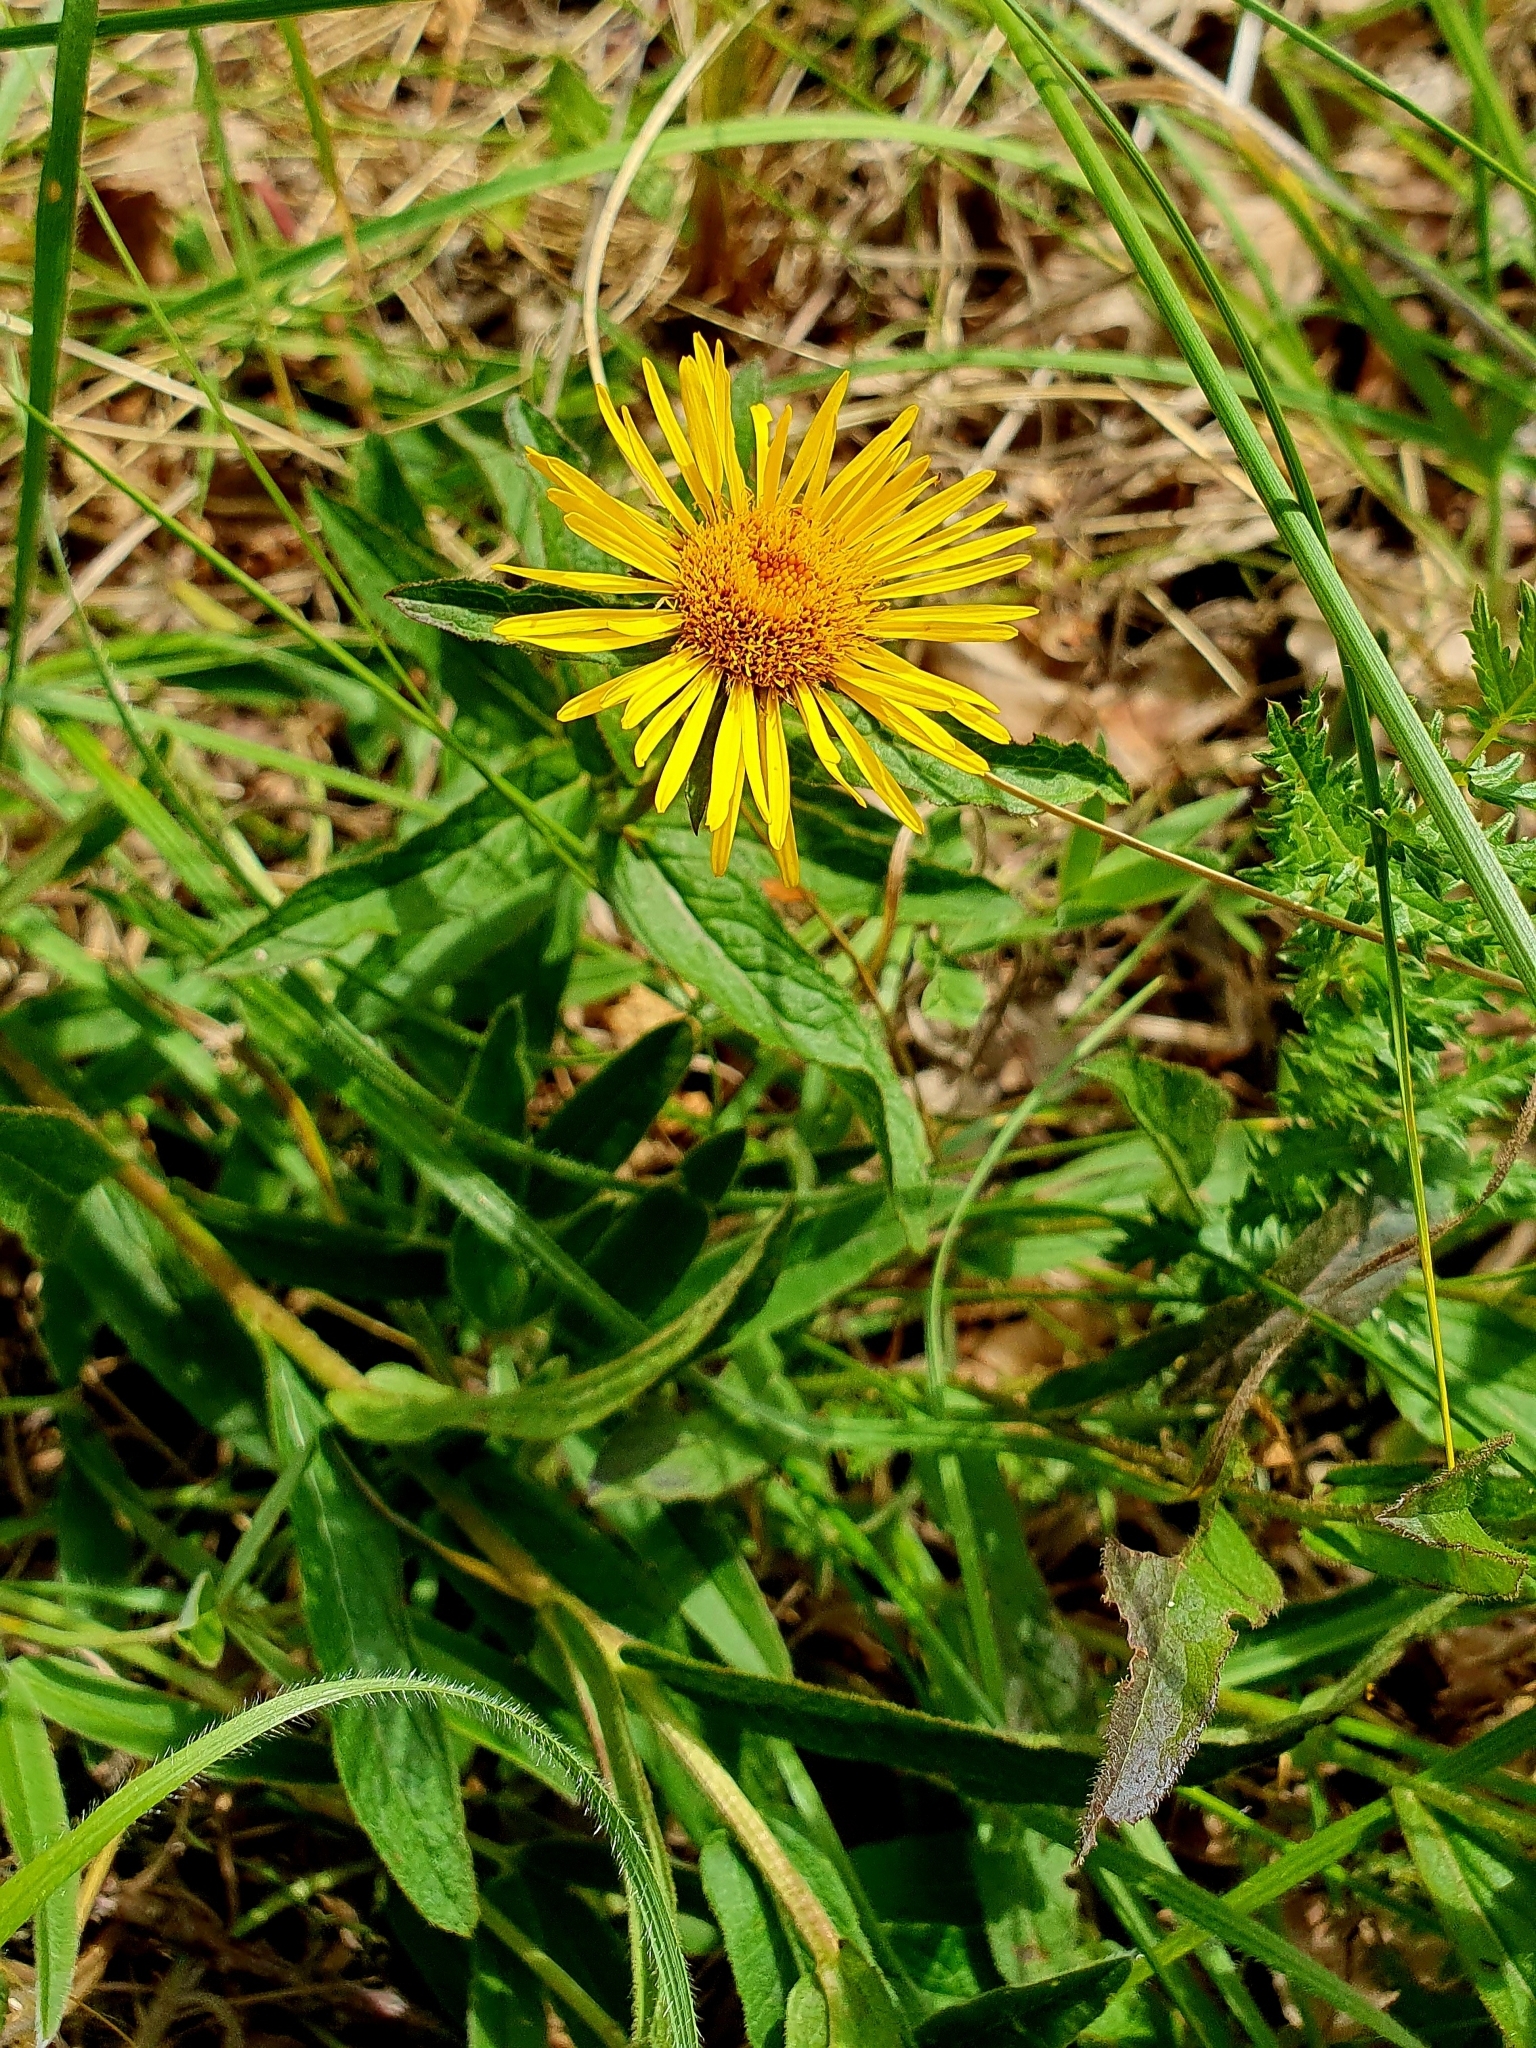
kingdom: Plantae
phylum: Tracheophyta
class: Magnoliopsida
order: Asterales
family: Asteraceae
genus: Pentanema
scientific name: Pentanema hirtum
